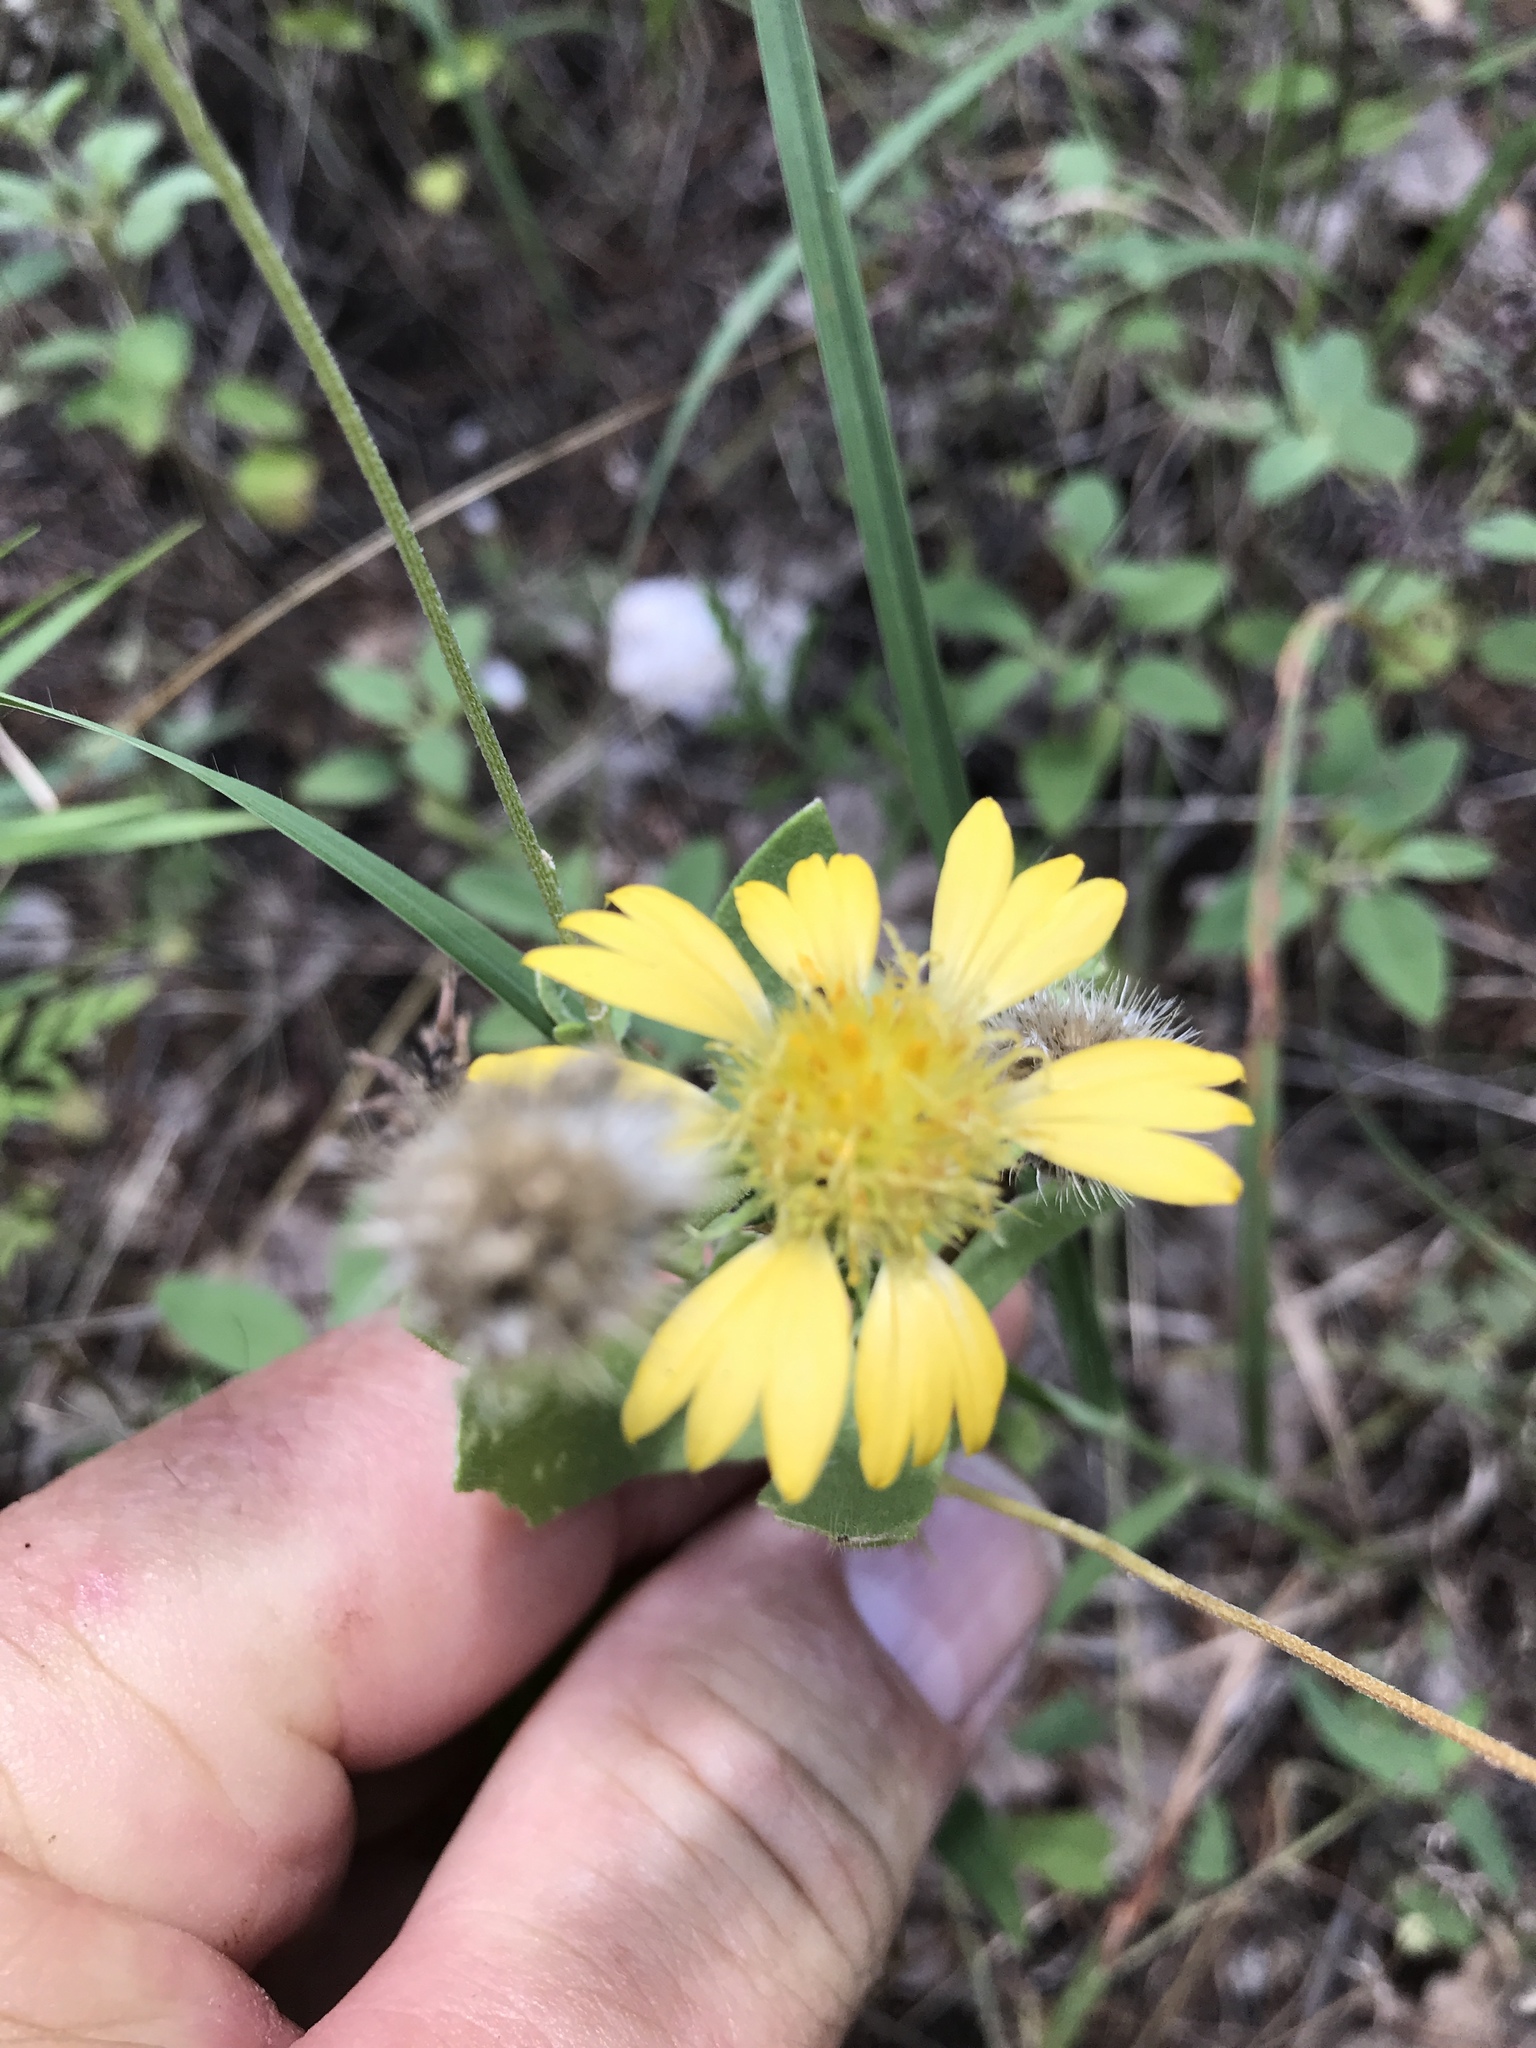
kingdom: Plantae
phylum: Tracheophyta
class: Magnoliopsida
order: Asterales
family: Asteraceae
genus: Gaillardia
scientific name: Gaillardia pulchella
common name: Firewheel
